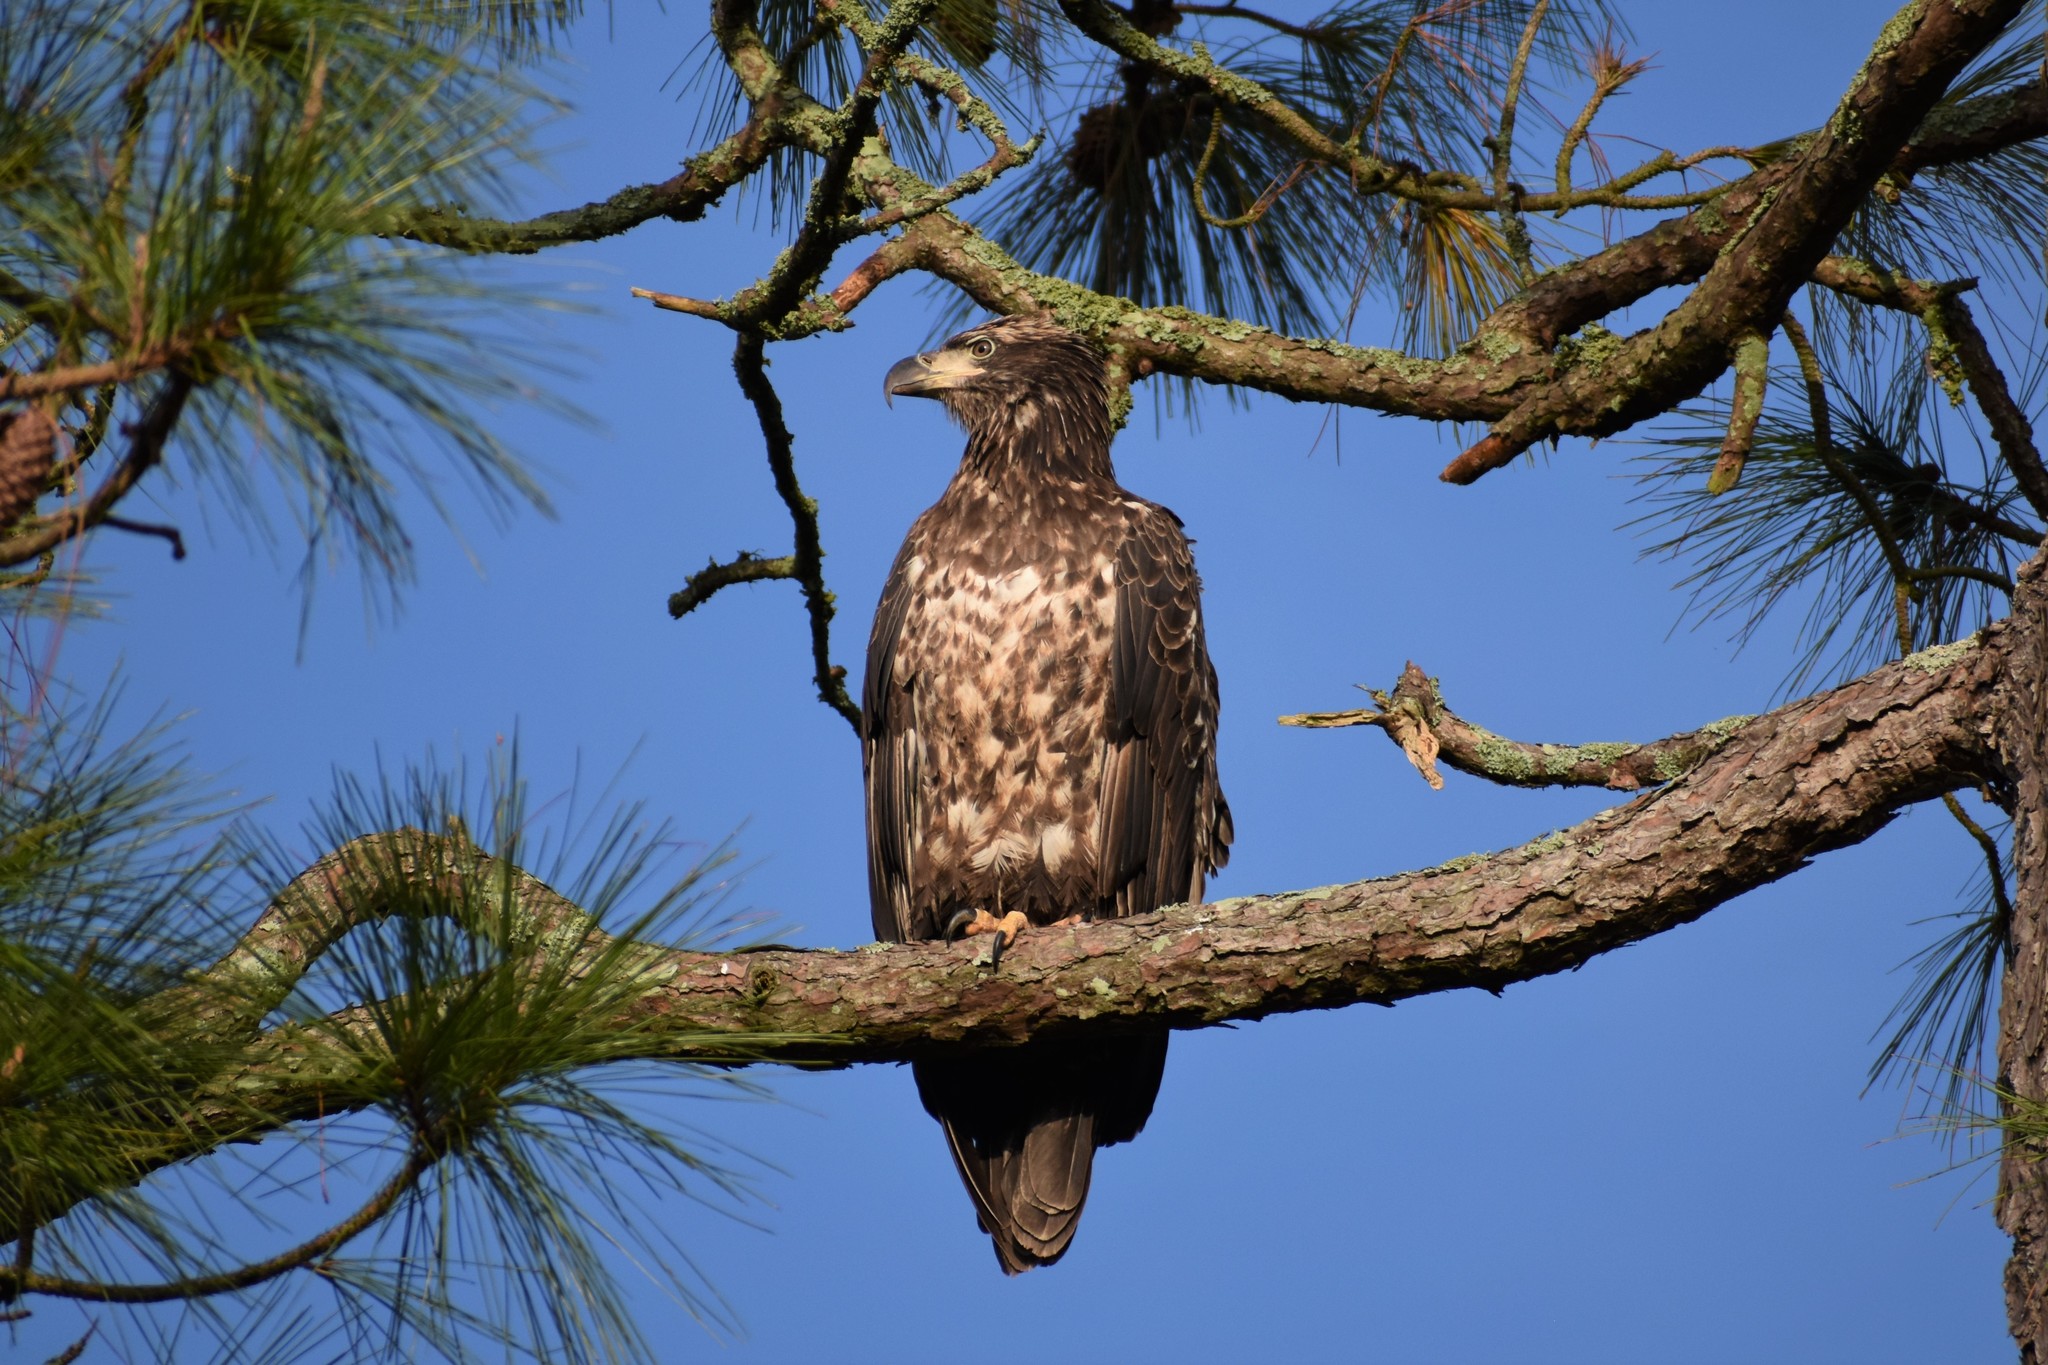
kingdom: Animalia
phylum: Chordata
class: Aves
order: Accipitriformes
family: Accipitridae
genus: Haliaeetus
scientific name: Haliaeetus leucocephalus
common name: Bald eagle
